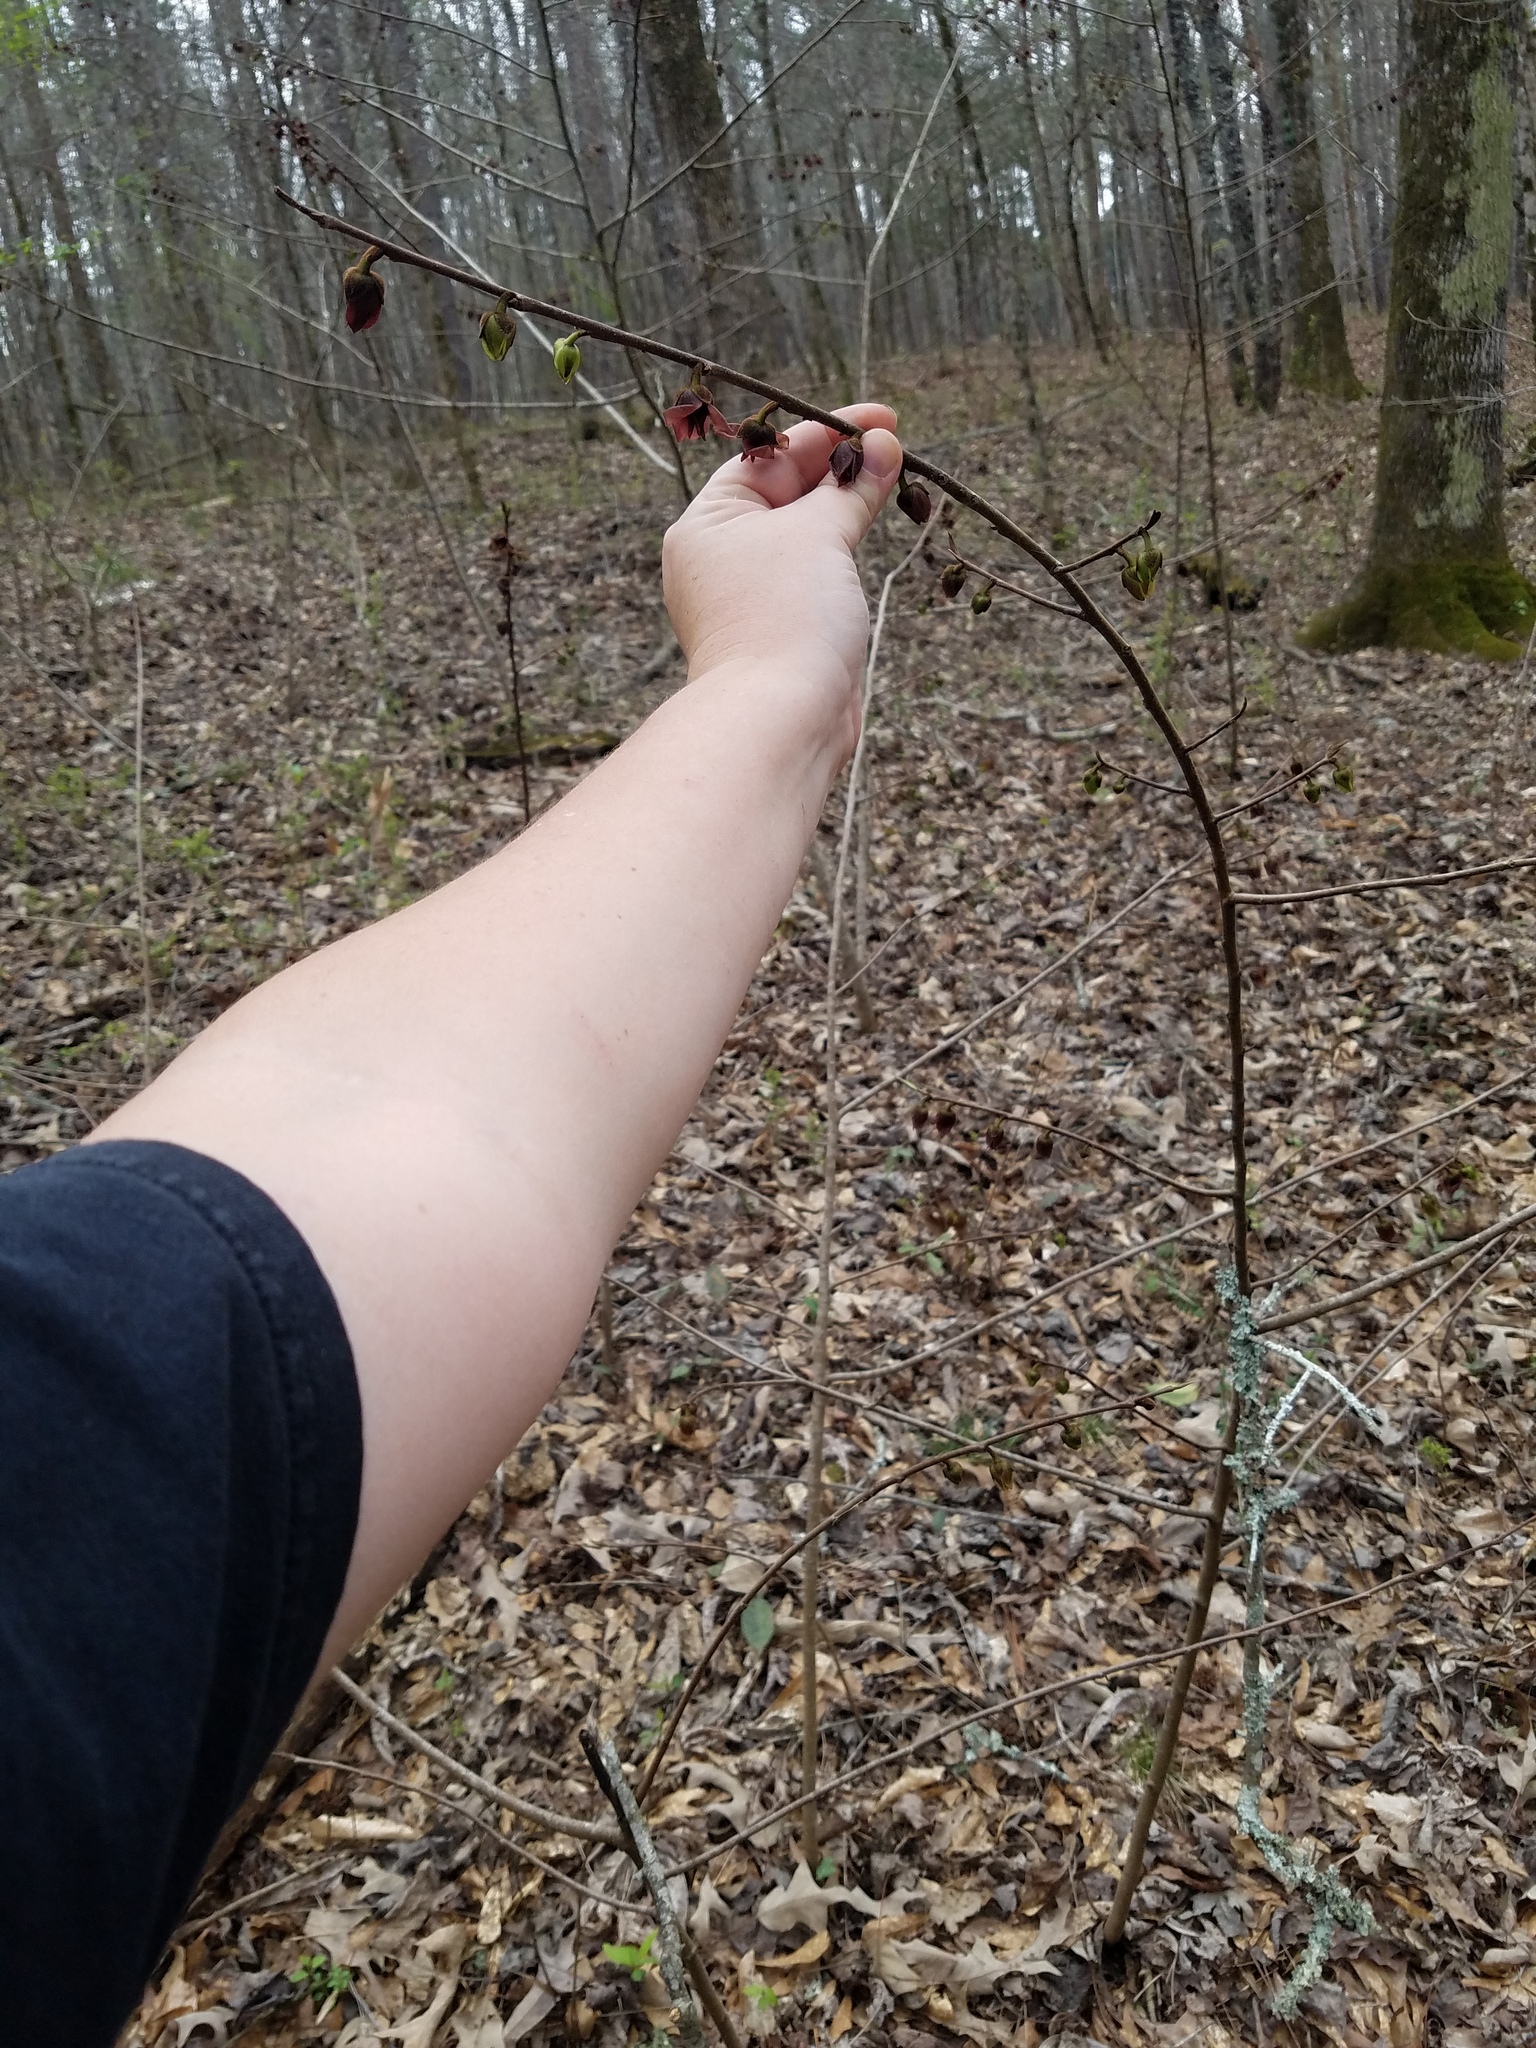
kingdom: Plantae
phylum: Tracheophyta
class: Magnoliopsida
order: Magnoliales
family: Annonaceae
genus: Asimina
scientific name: Asimina piedmontana
